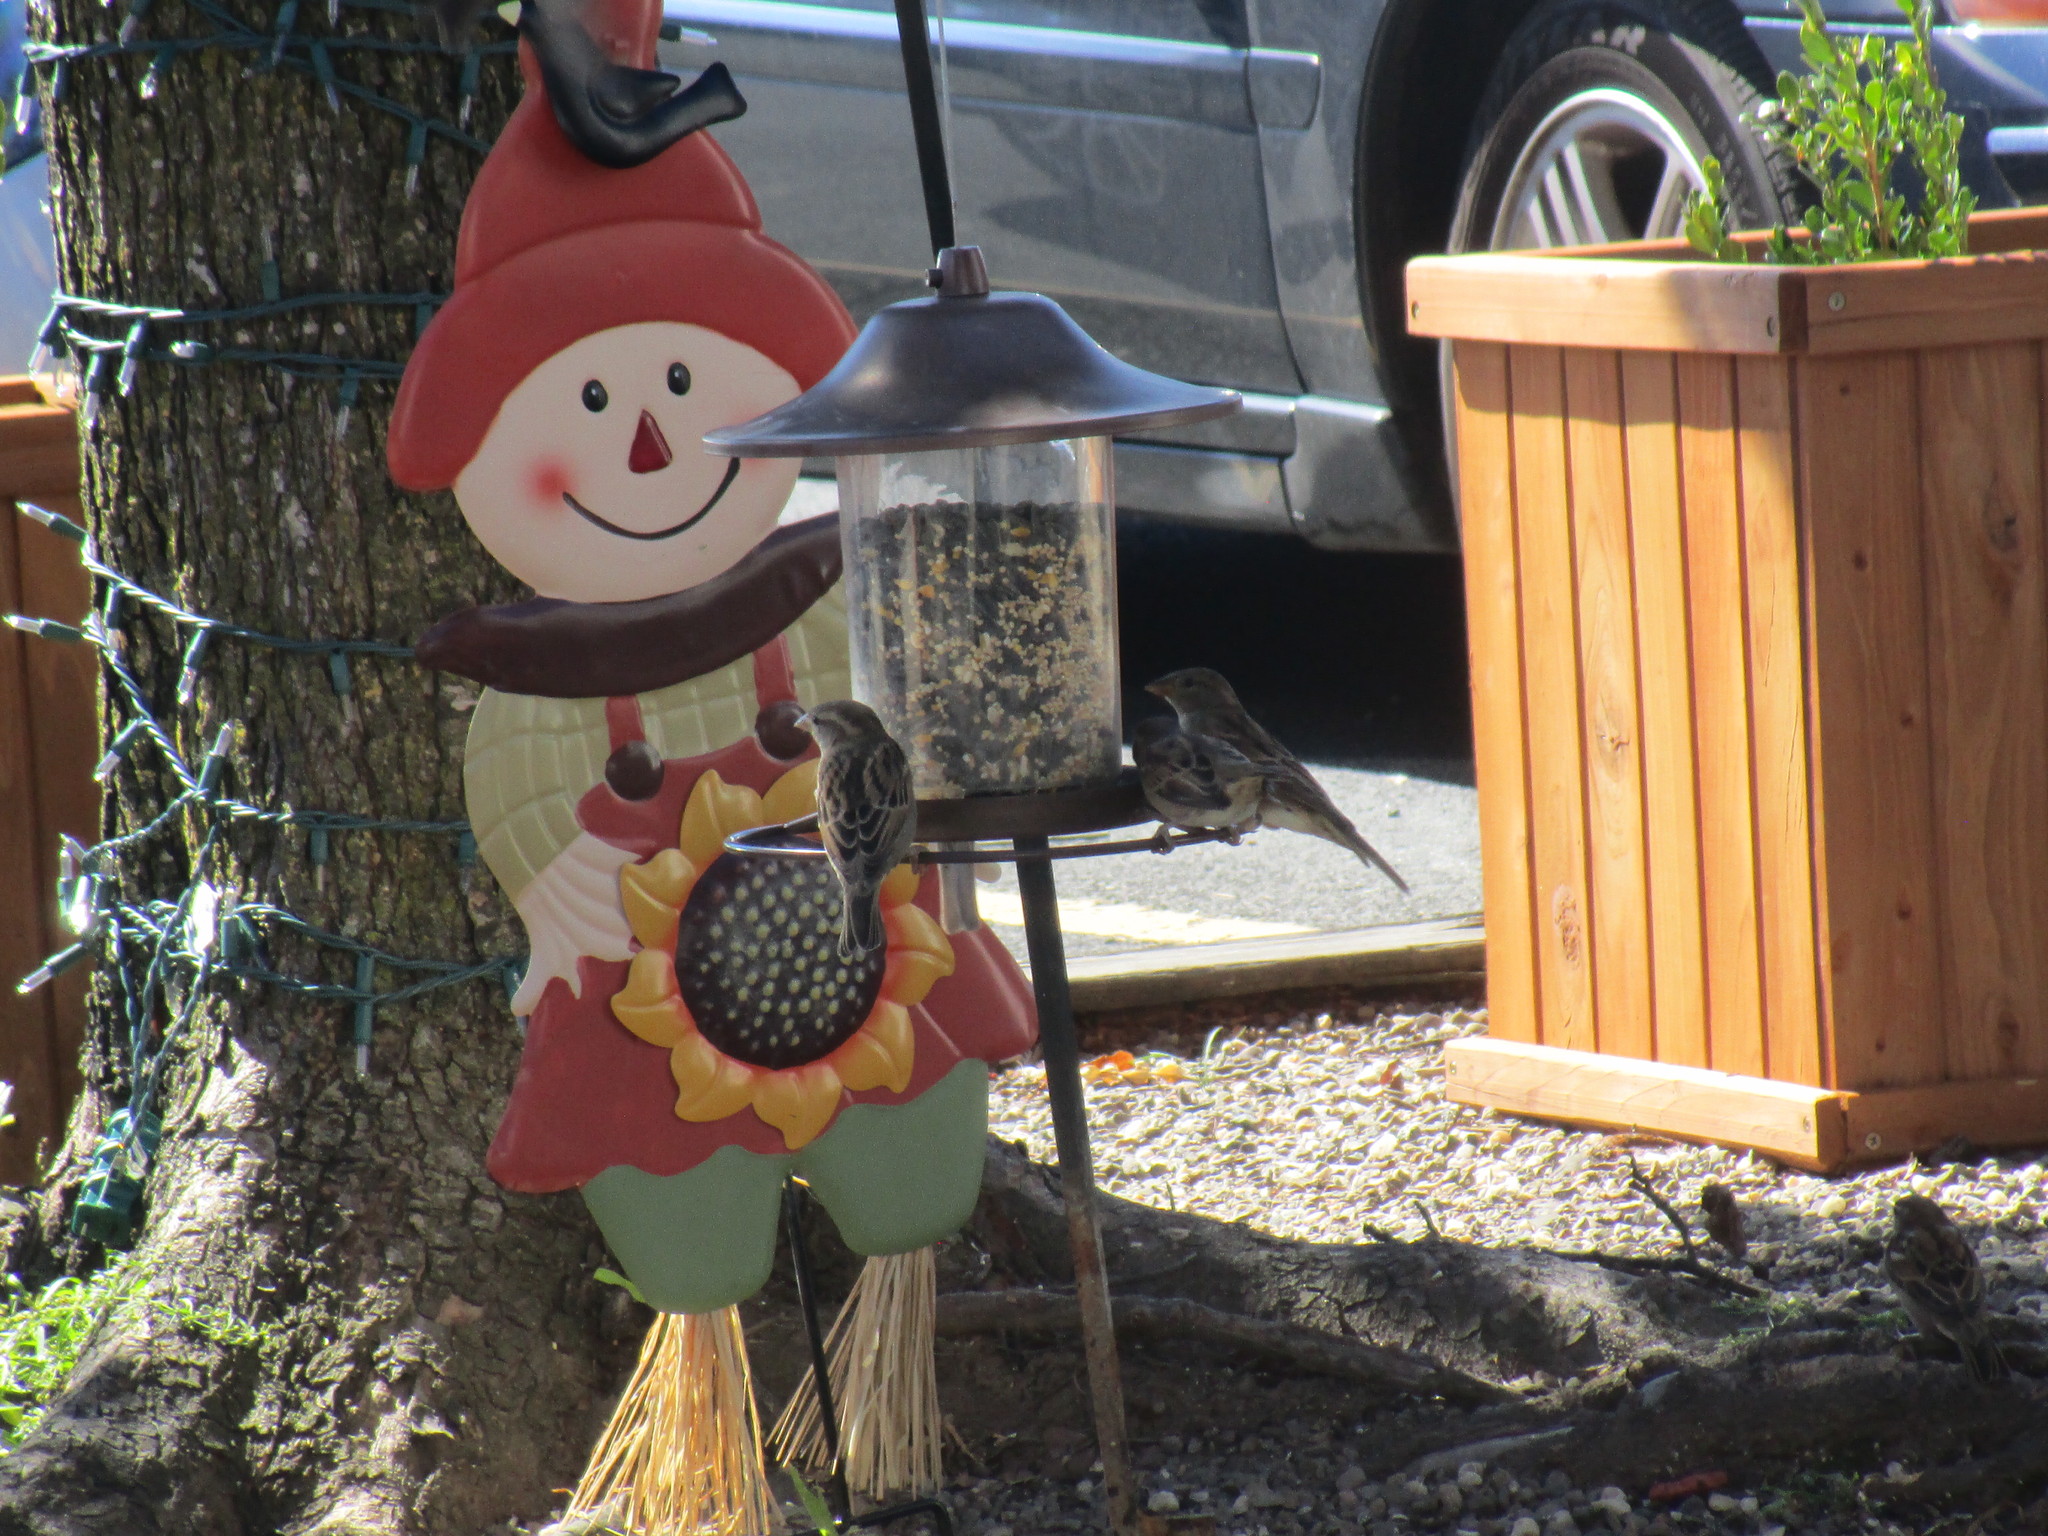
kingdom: Animalia
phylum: Chordata
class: Aves
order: Passeriformes
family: Passeridae
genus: Passer
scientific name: Passer domesticus
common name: House sparrow
